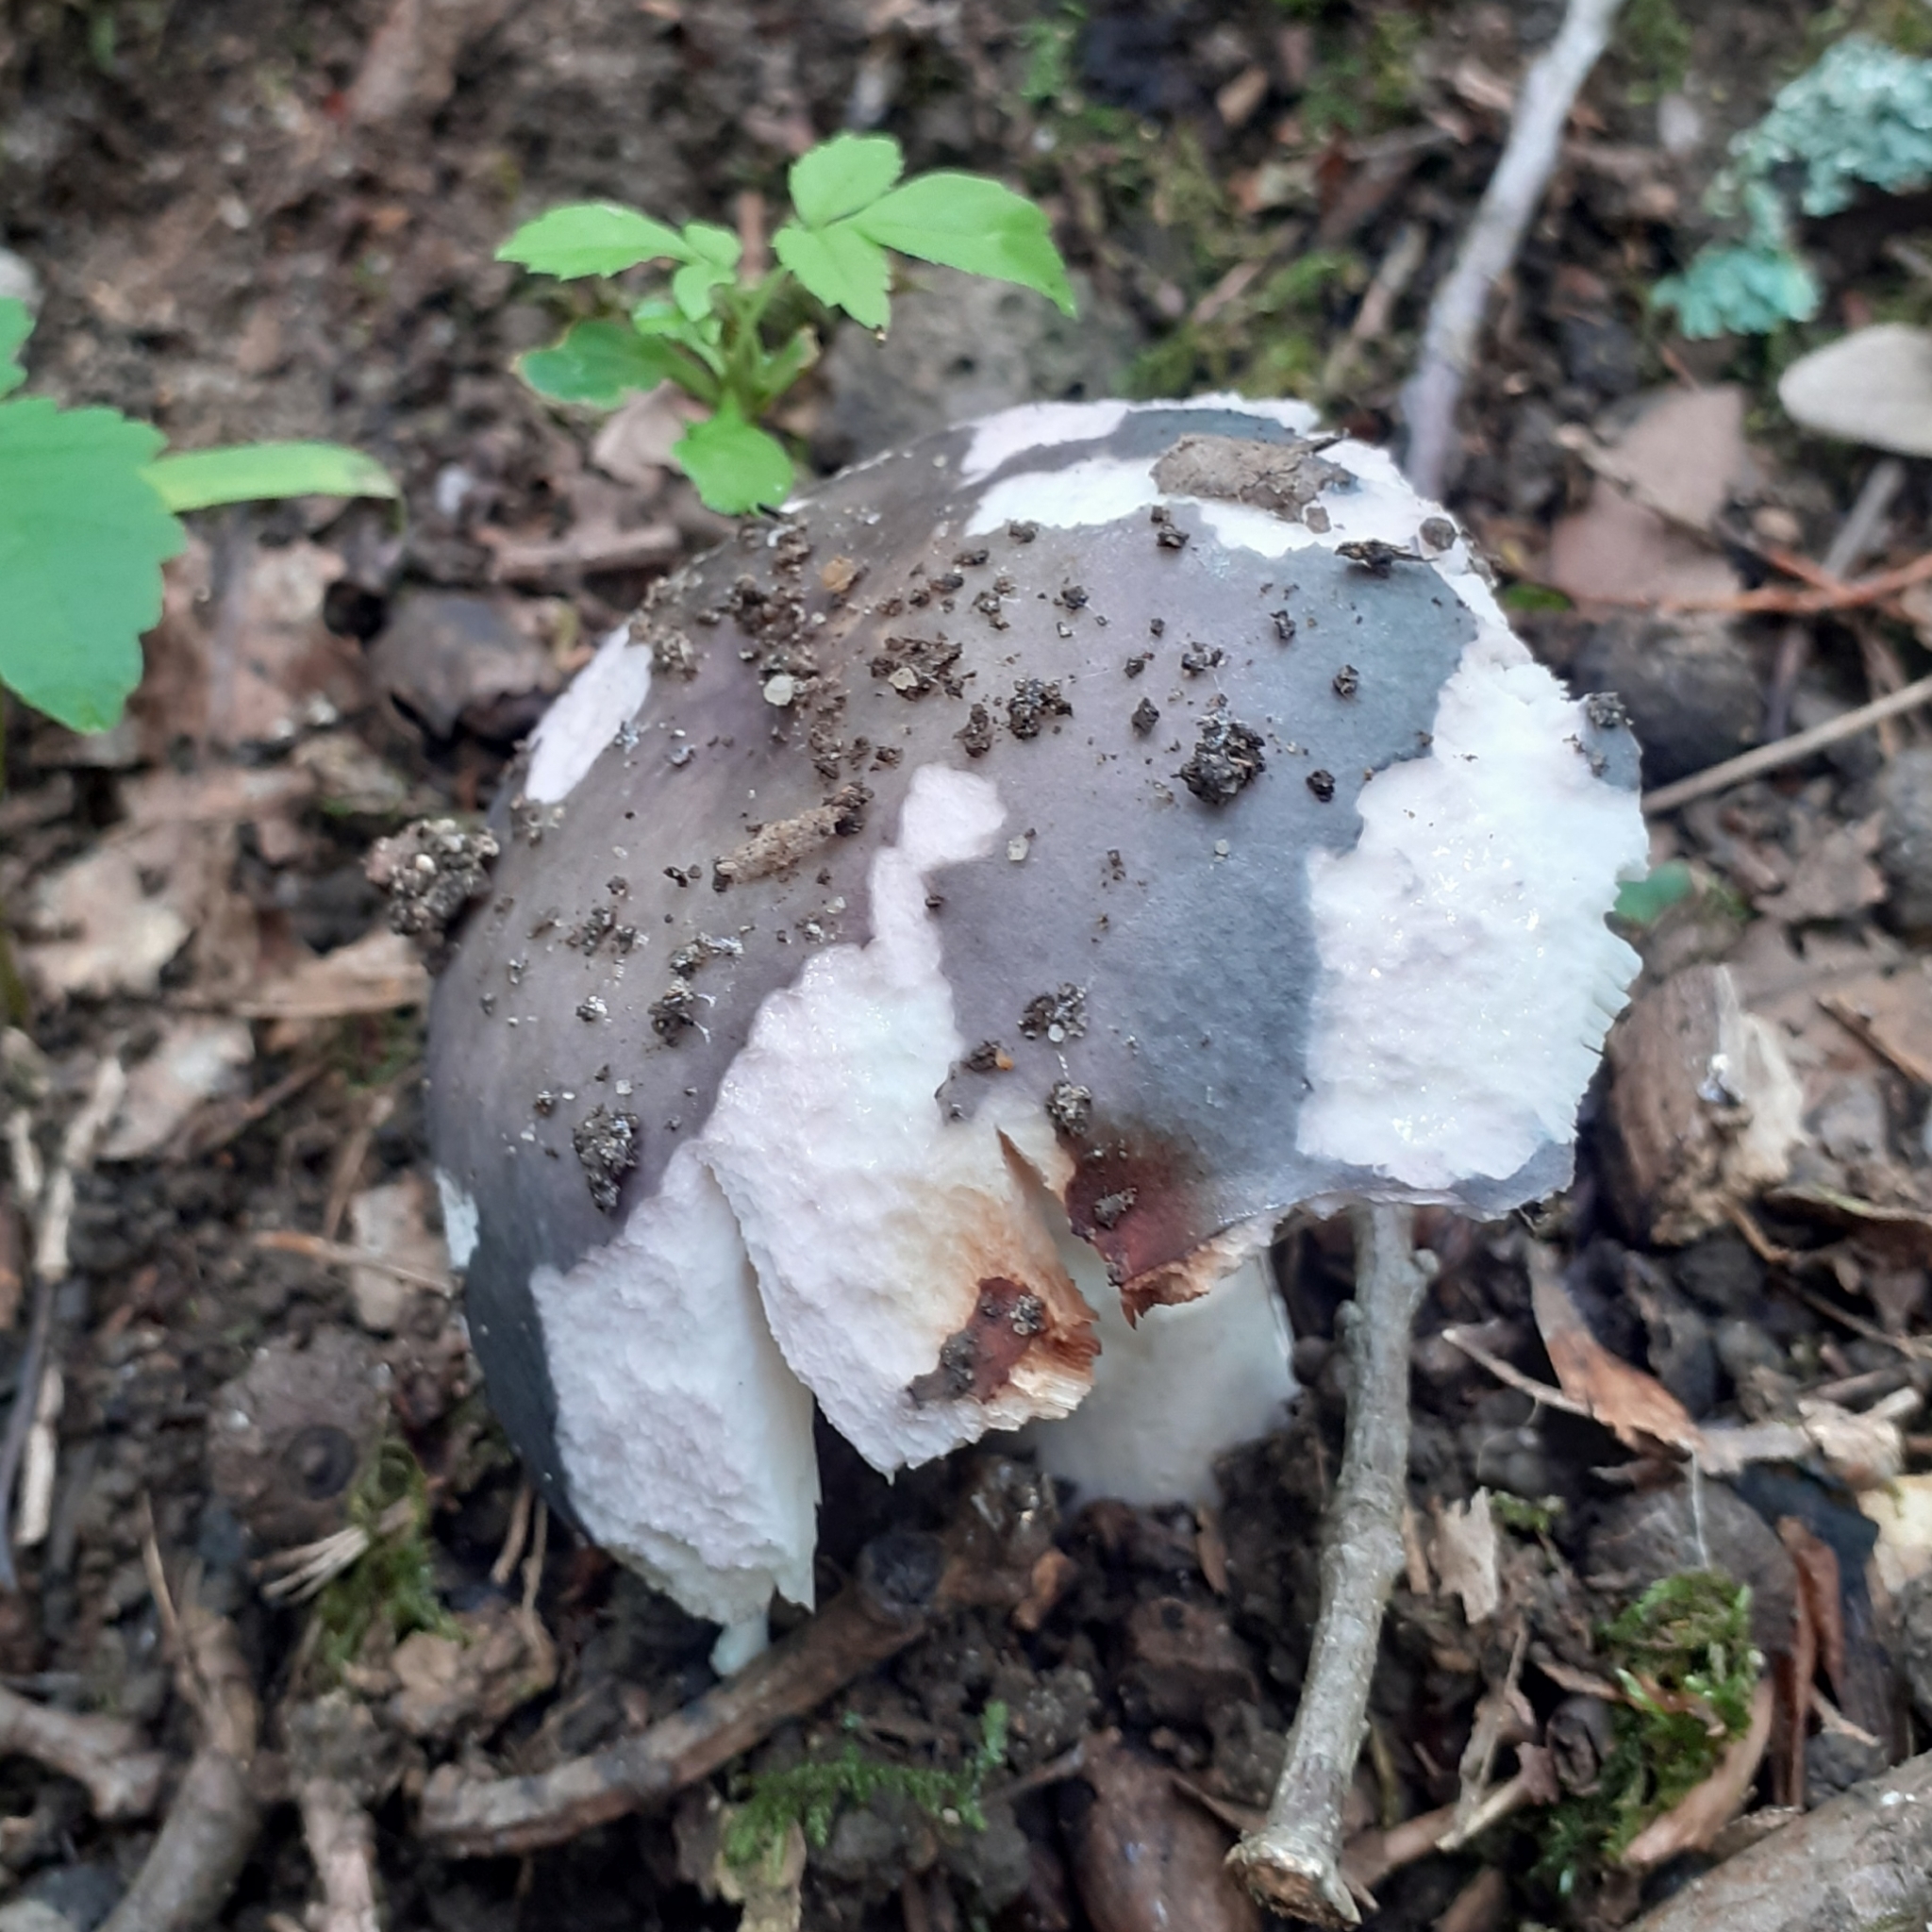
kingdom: Fungi
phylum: Basidiomycota
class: Agaricomycetes
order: Russulales
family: Russulaceae
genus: Russula
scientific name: Russula cyanoxantha
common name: Charcoal burner
